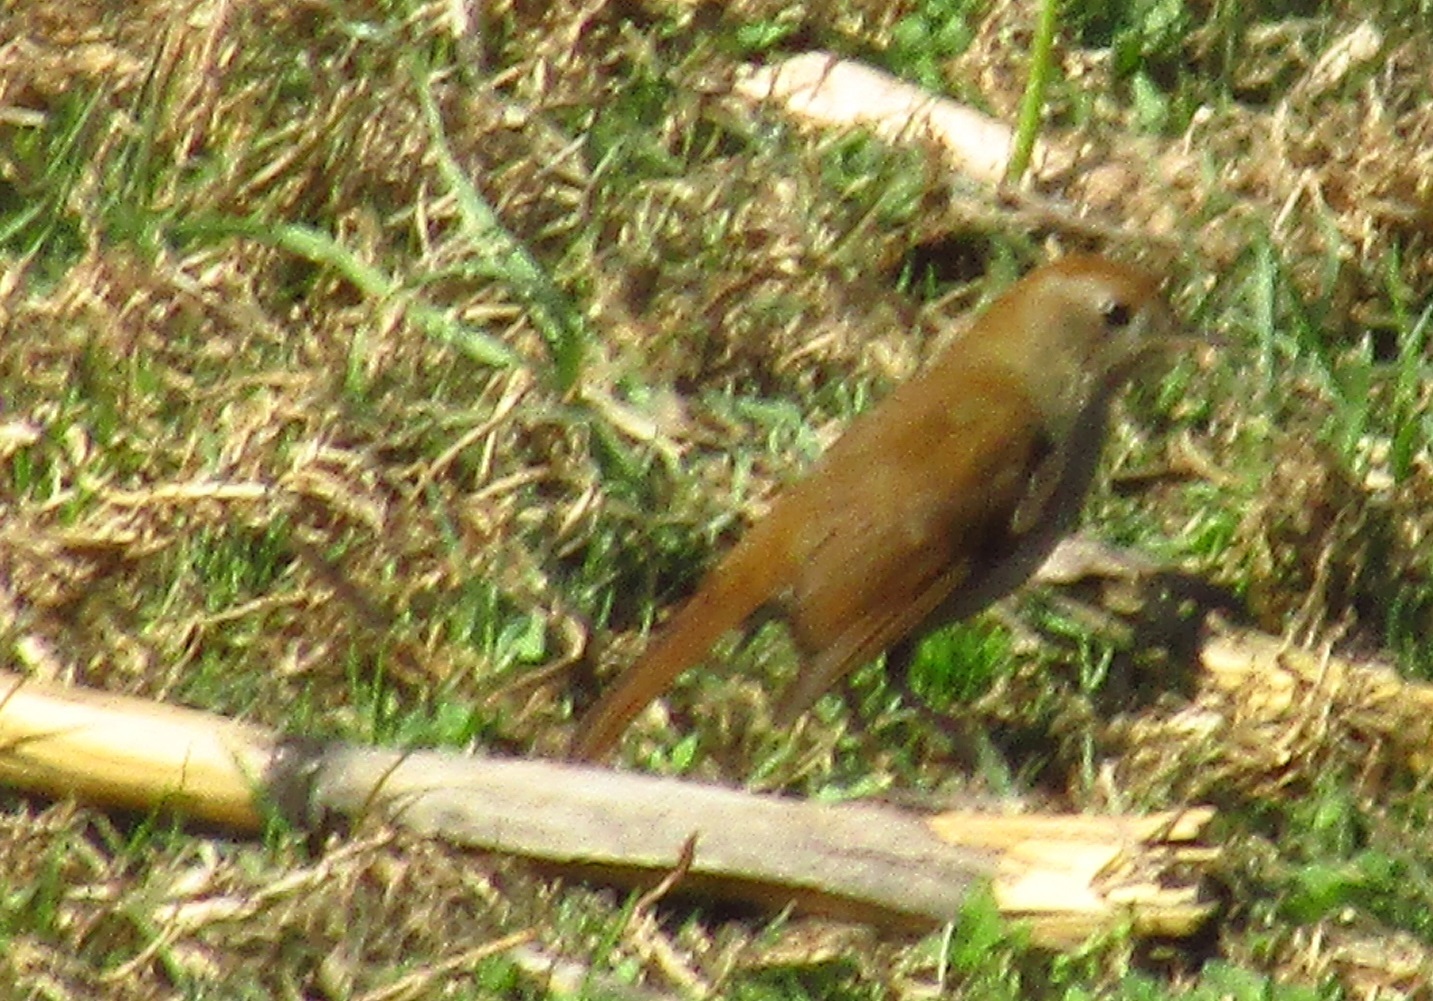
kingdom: Animalia
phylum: Chordata
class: Aves
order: Passeriformes
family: Turdidae
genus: Catharus
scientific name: Catharus occidentalis
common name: Russet nightingale-thrush
